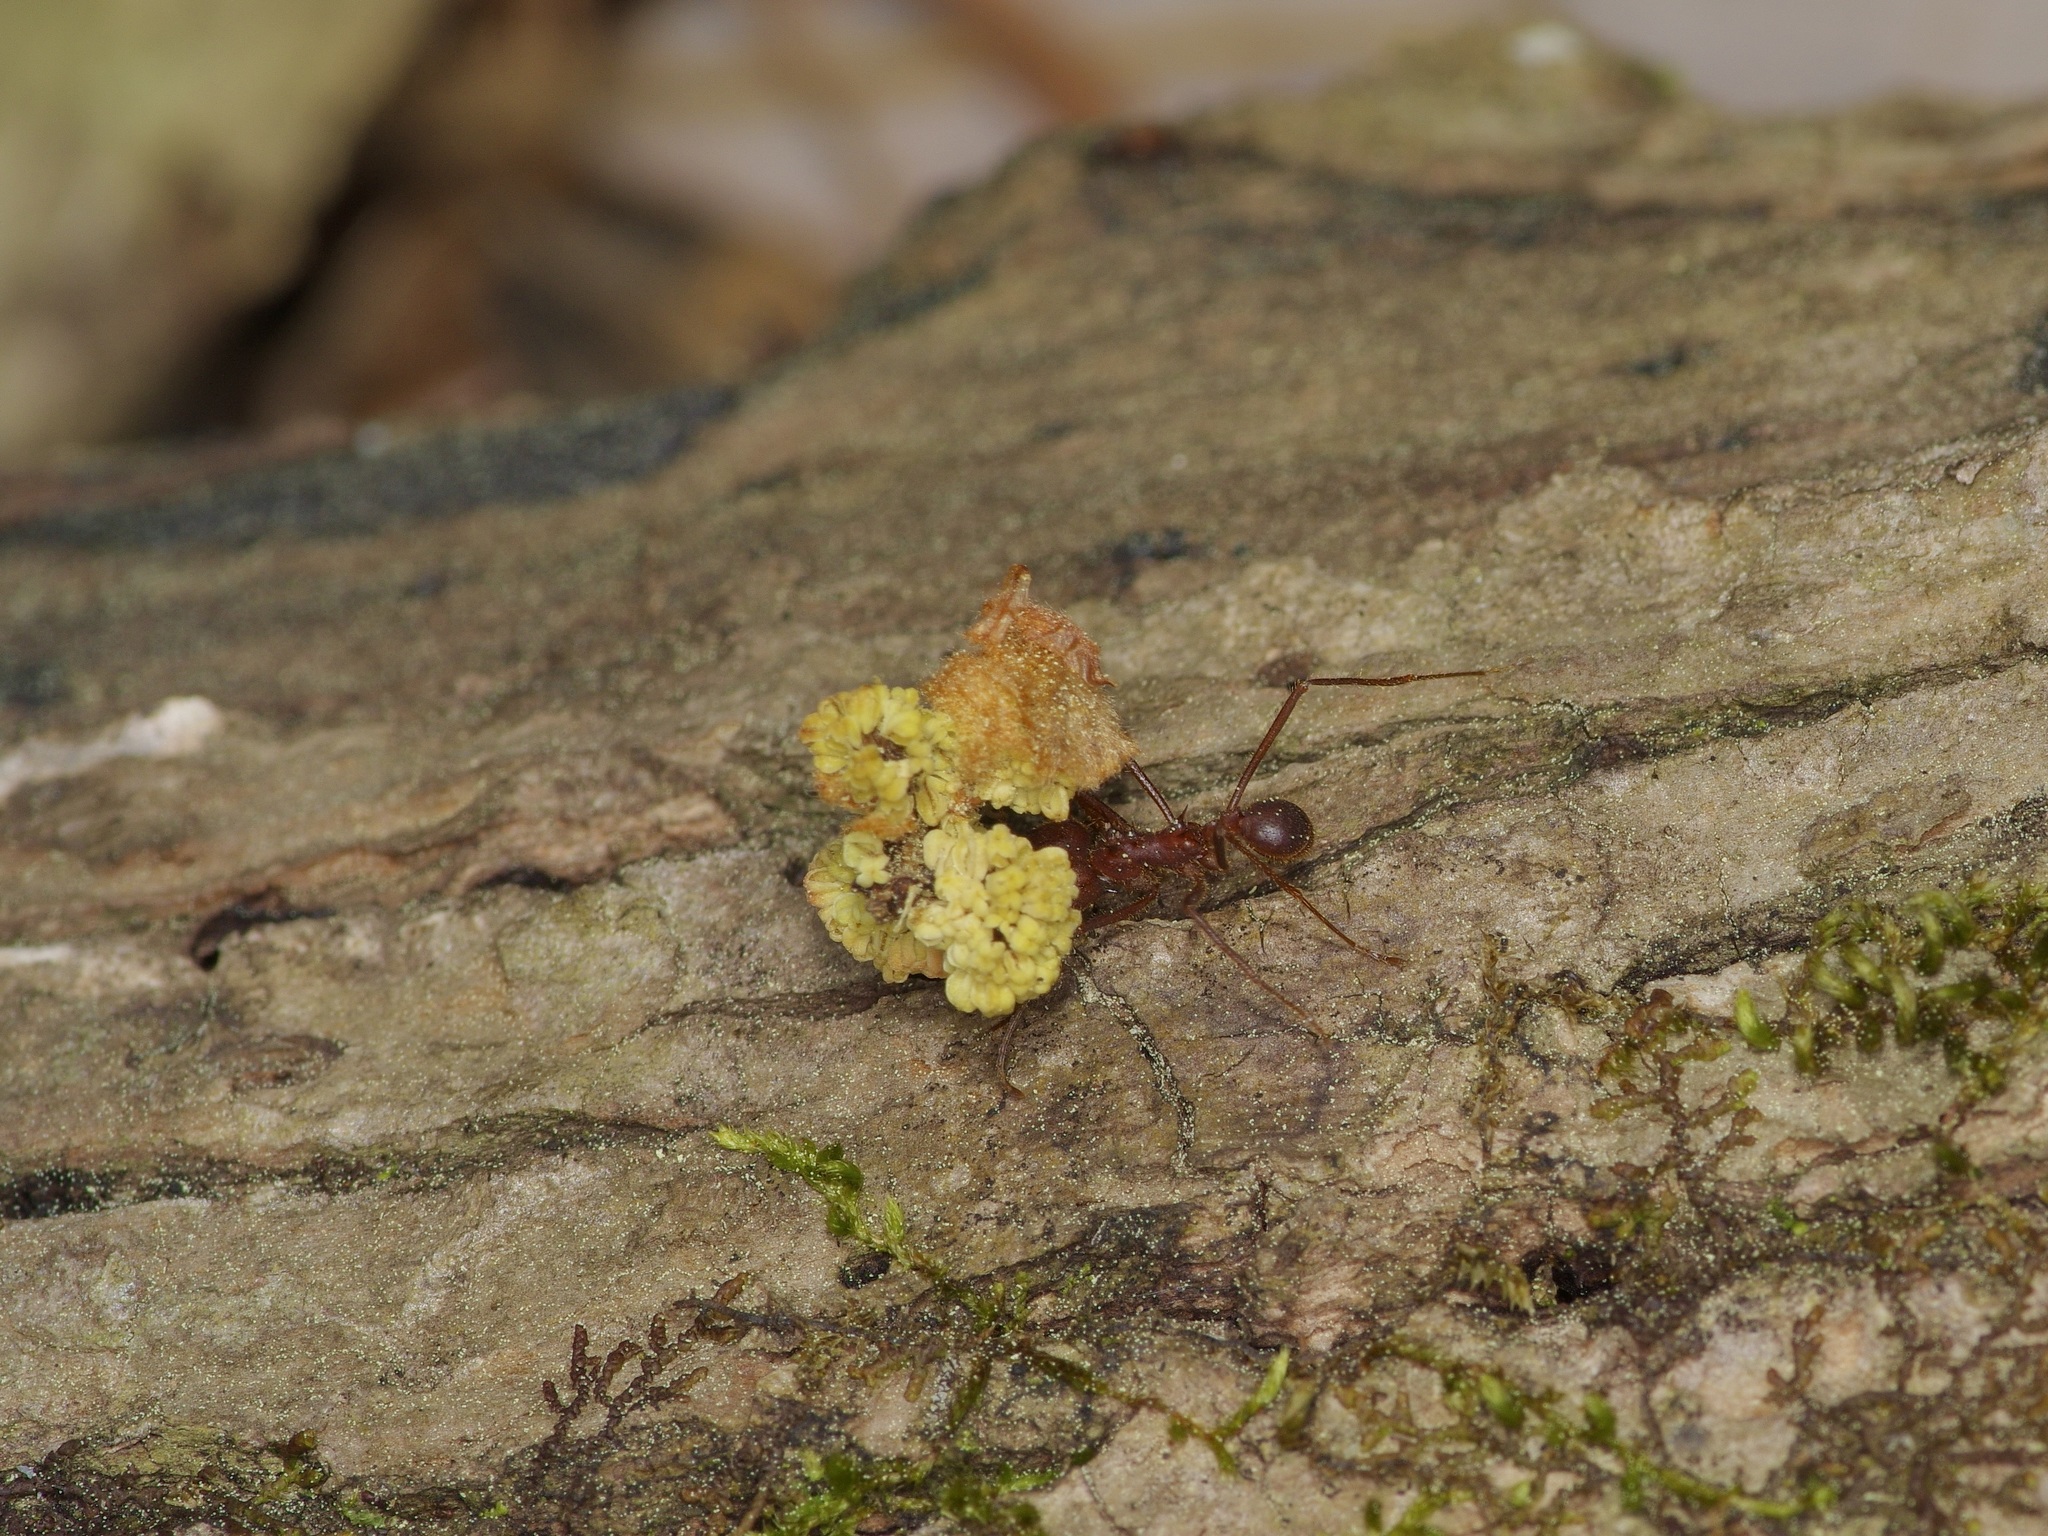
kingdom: Animalia
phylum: Arthropoda
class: Insecta
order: Hymenoptera
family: Formicidae
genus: Atta
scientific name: Atta texana
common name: Texas leafcutting ant
